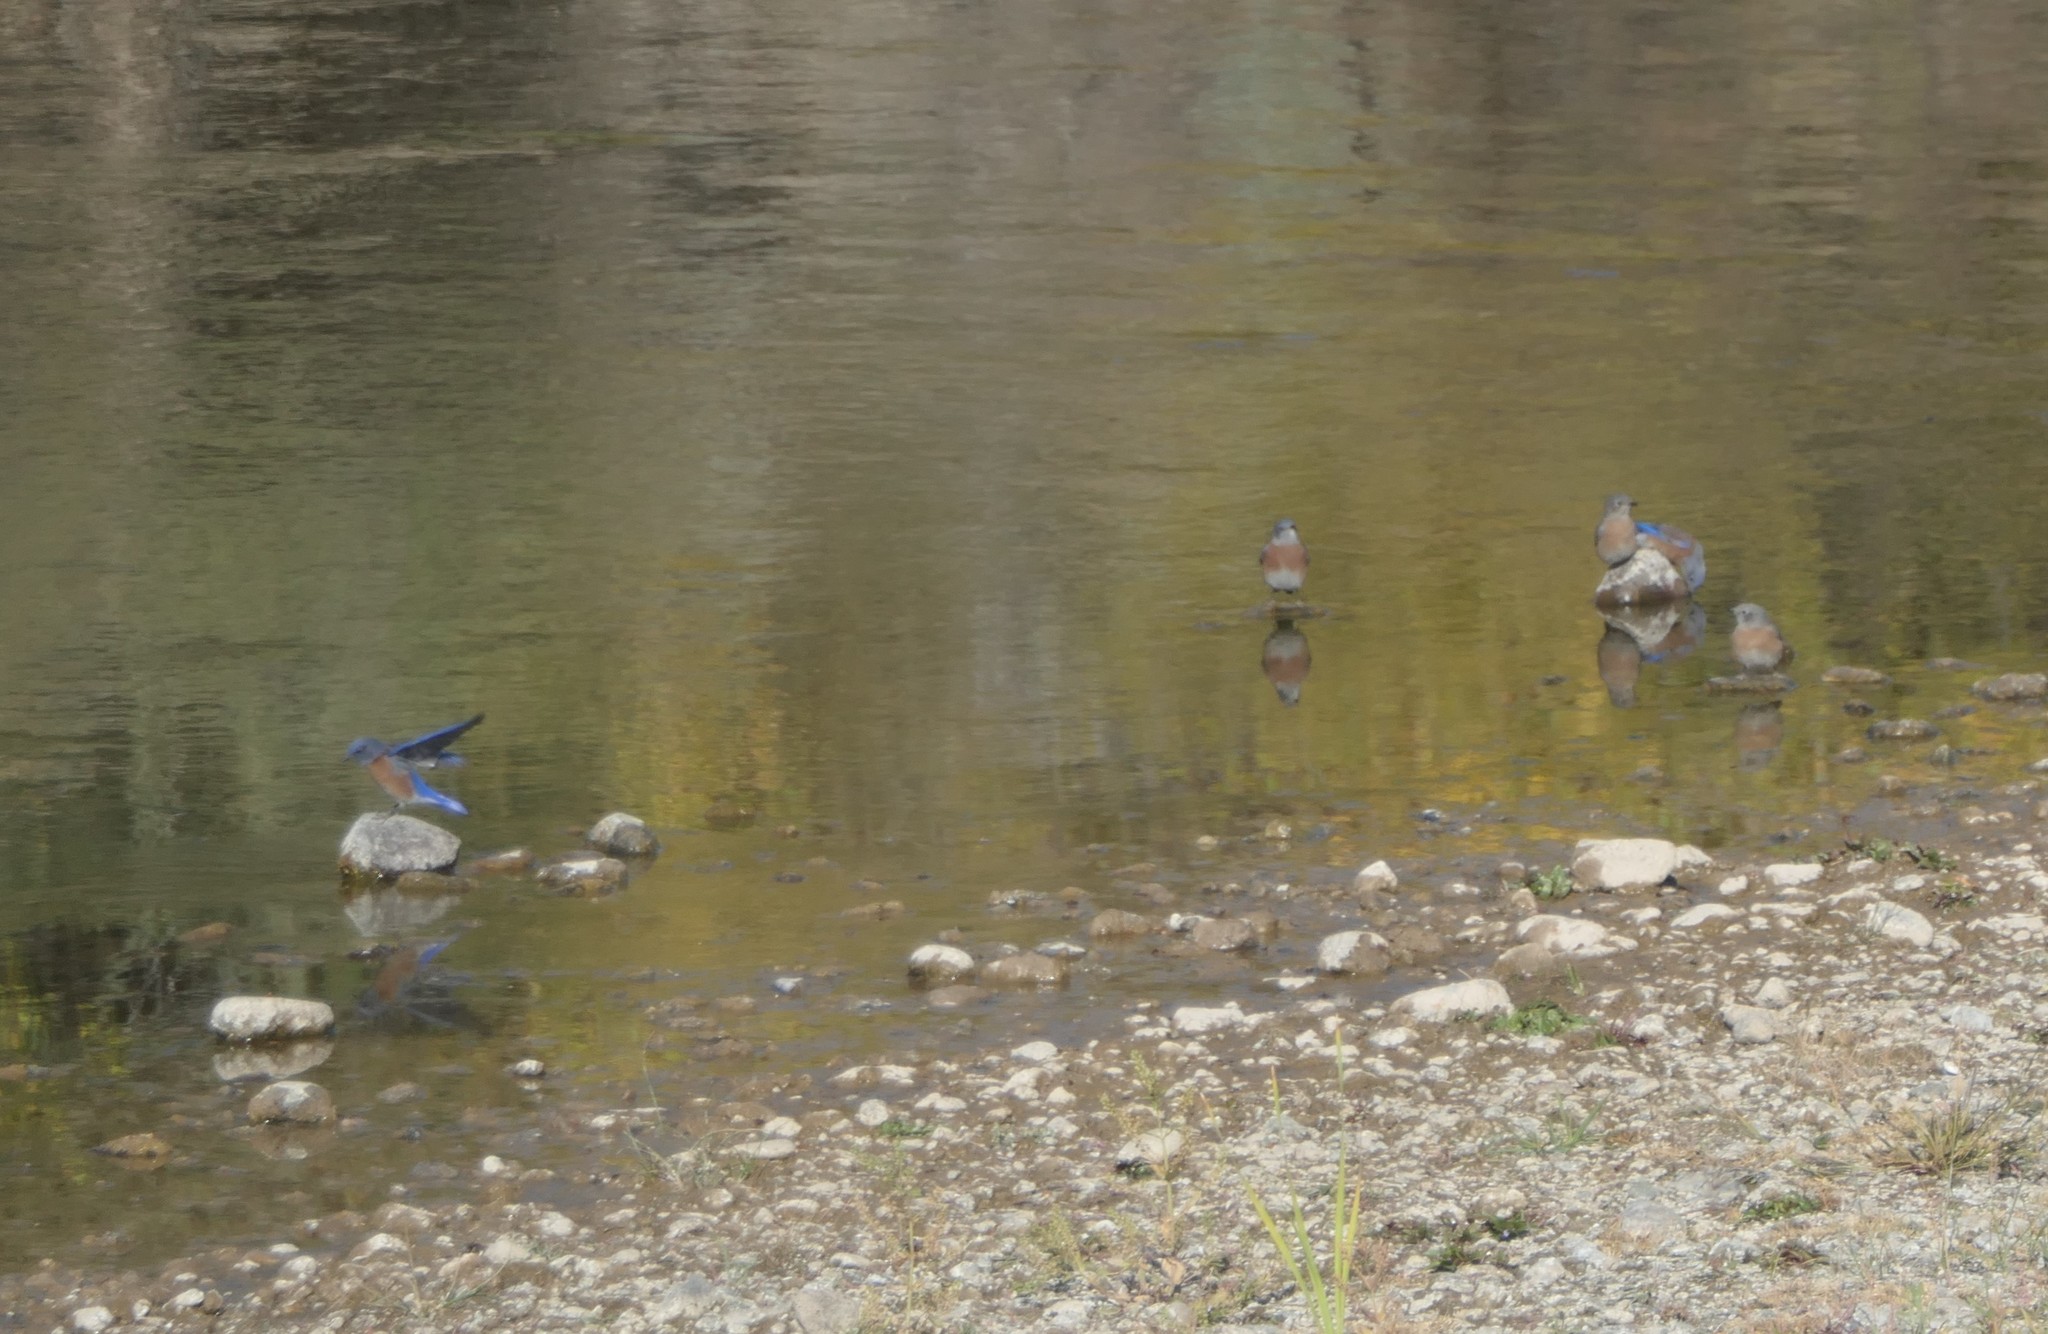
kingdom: Animalia
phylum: Chordata
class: Aves
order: Passeriformes
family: Turdidae
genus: Sialia
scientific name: Sialia mexicana
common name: Western bluebird
